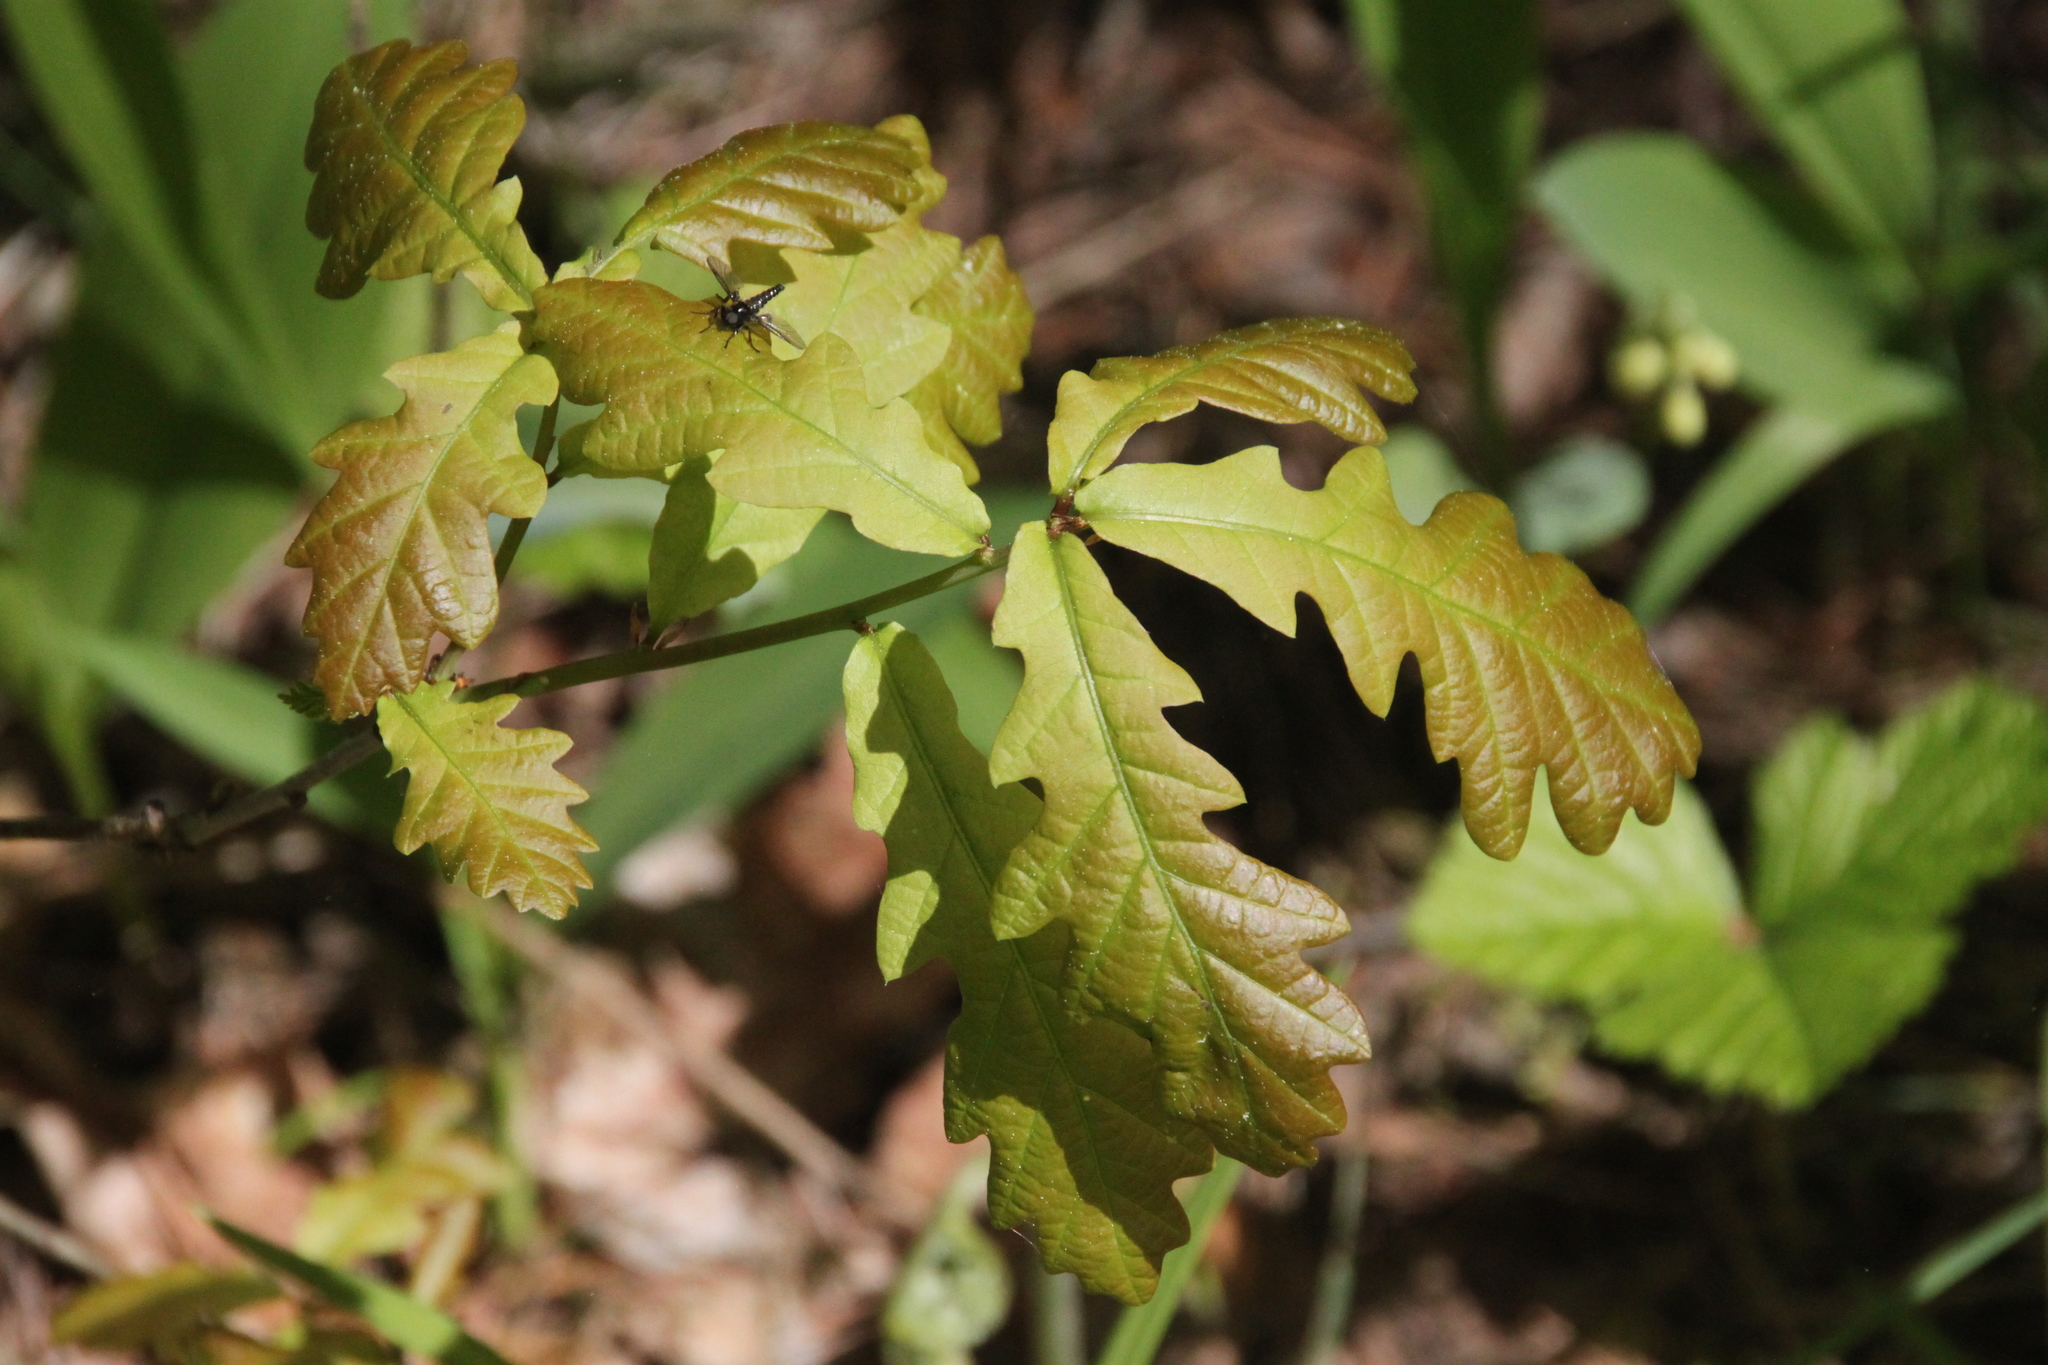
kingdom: Plantae
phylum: Tracheophyta
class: Magnoliopsida
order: Fagales
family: Fagaceae
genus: Quercus
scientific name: Quercus robur
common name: Pedunculate oak
